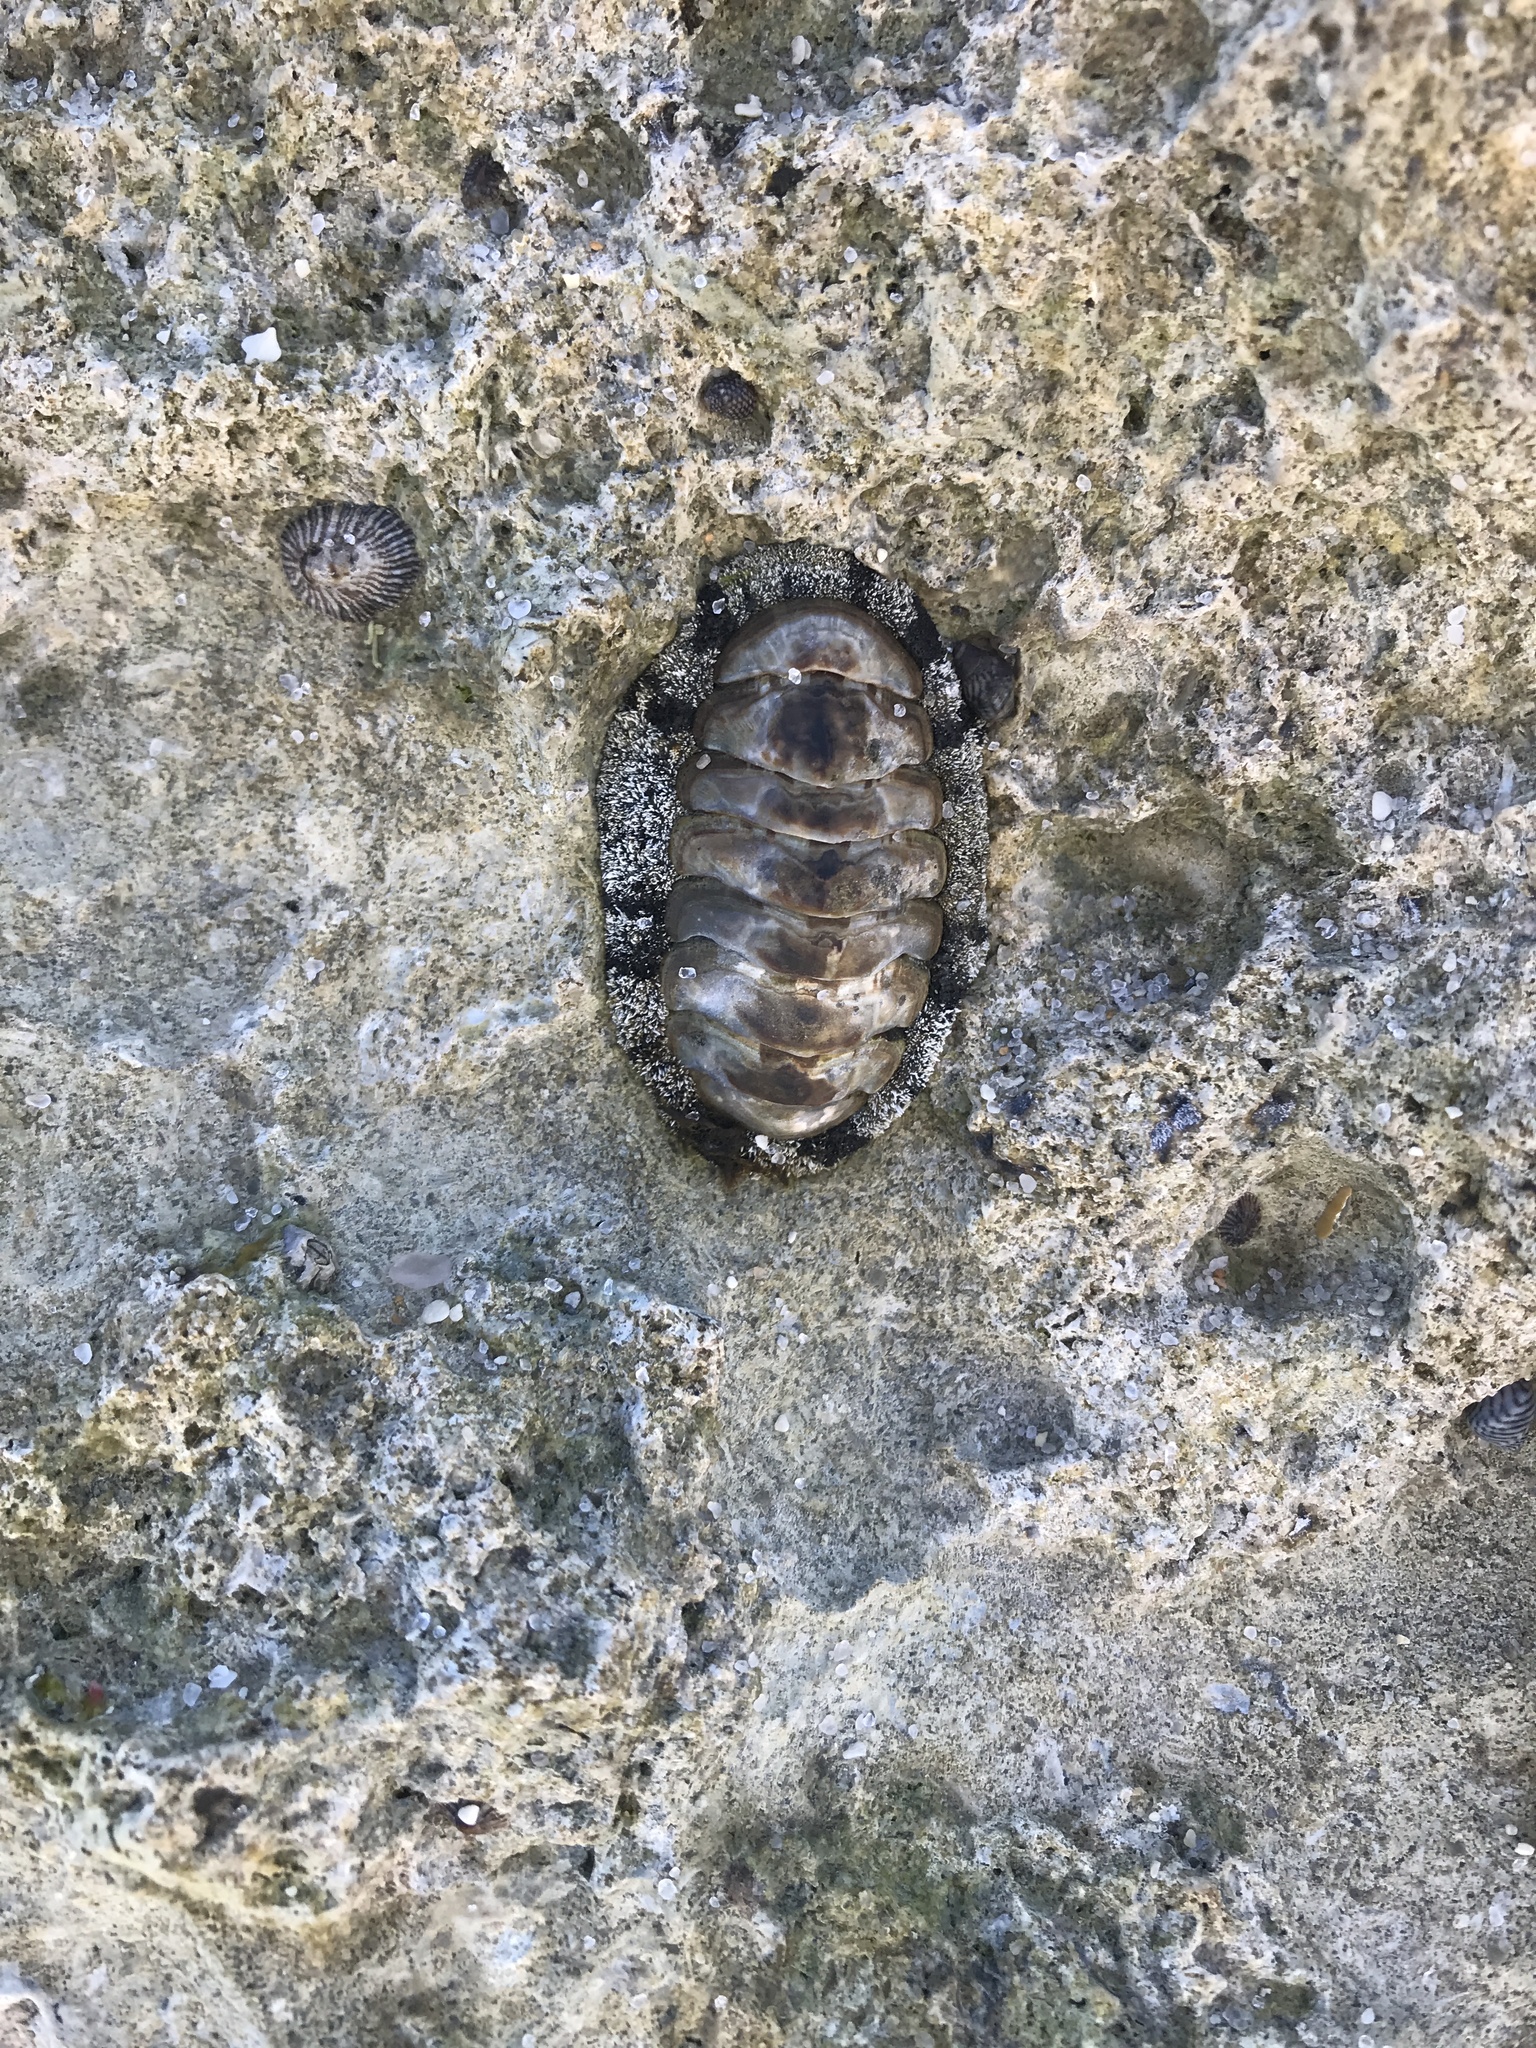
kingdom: Animalia
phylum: Mollusca
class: Polyplacophora
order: Chitonida
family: Chitonidae
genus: Acanthopleura
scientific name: Acanthopleura granulata
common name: West indian fuzzy chiton
